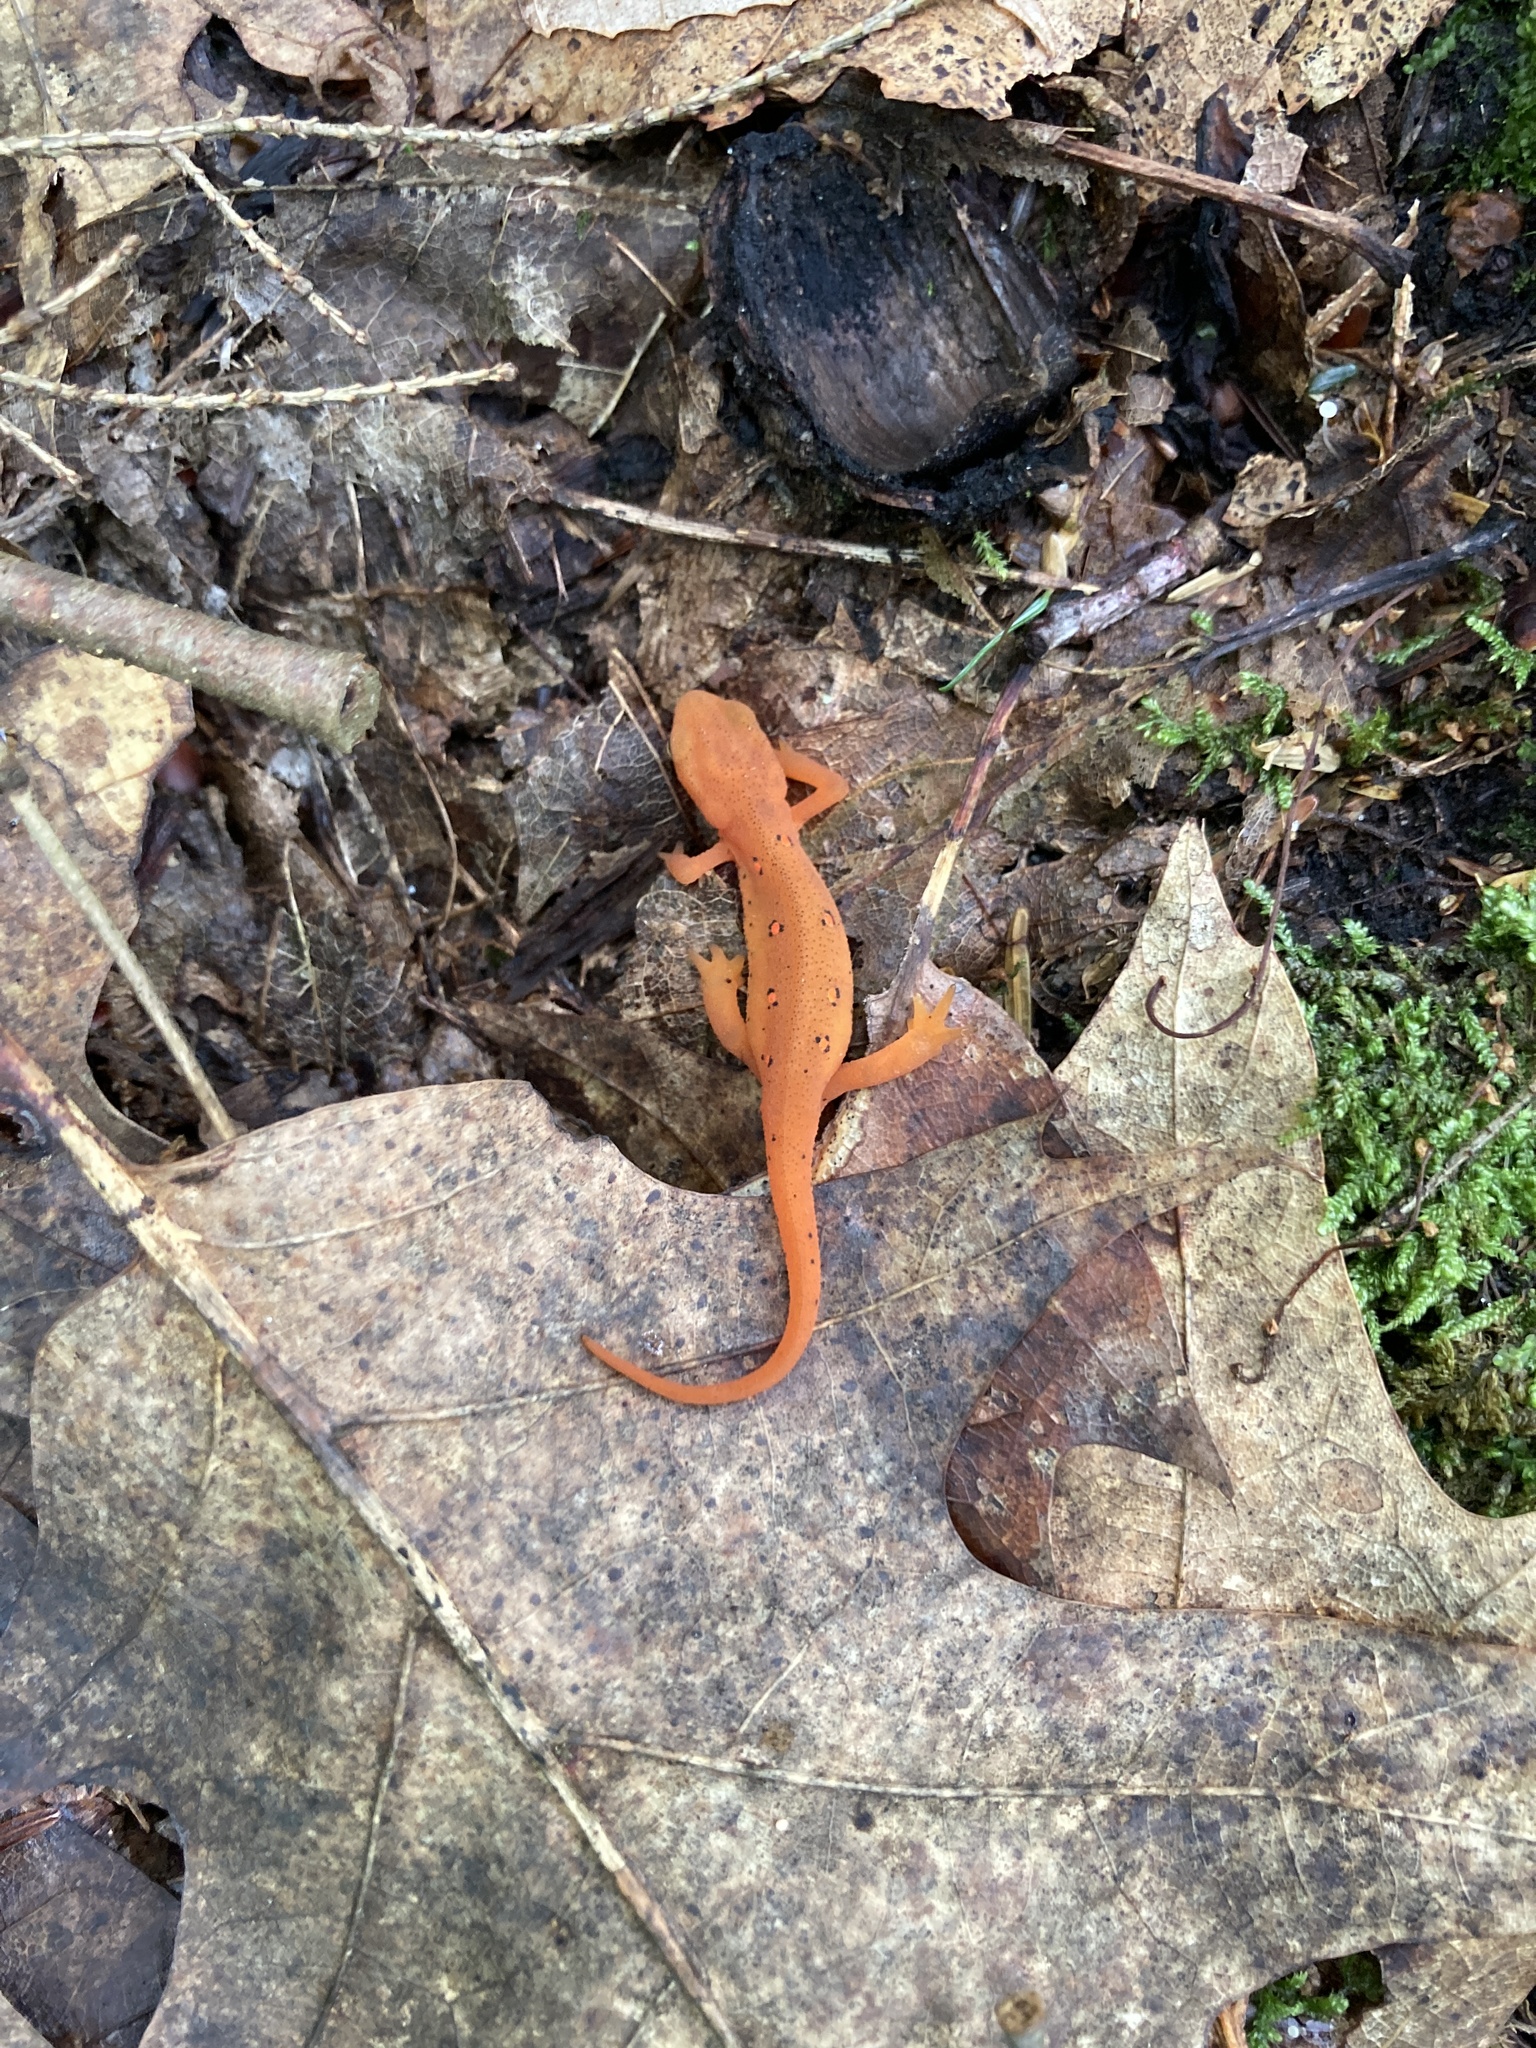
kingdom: Animalia
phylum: Chordata
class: Amphibia
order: Caudata
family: Salamandridae
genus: Notophthalmus
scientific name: Notophthalmus viridescens
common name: Eastern newt
